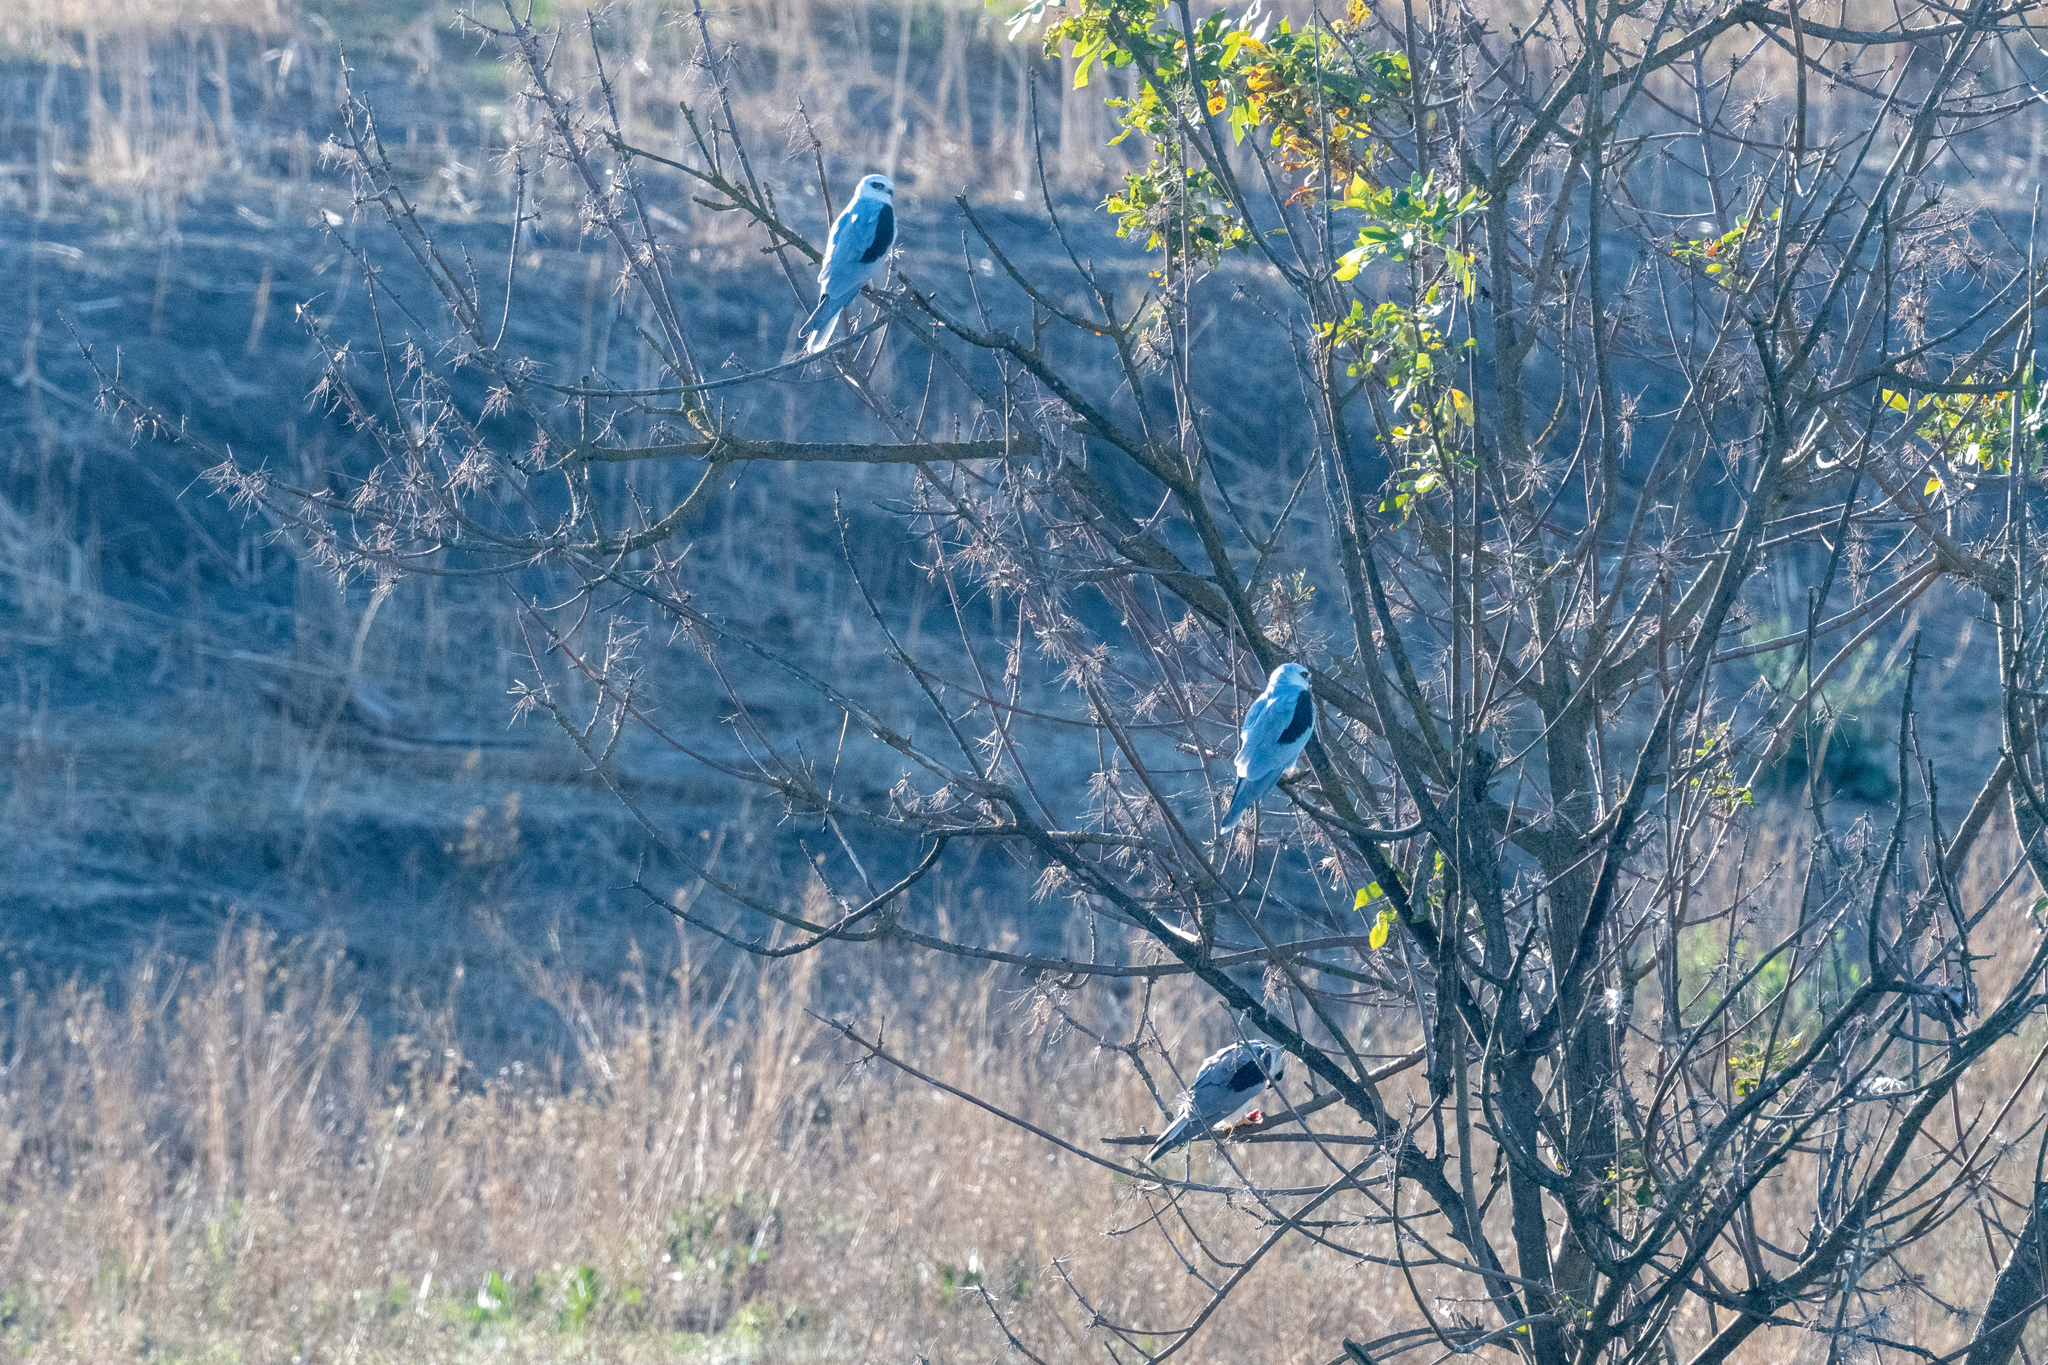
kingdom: Animalia
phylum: Chordata
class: Aves
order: Accipitriformes
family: Accipitridae
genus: Elanus
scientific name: Elanus leucurus
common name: White-tailed kite
